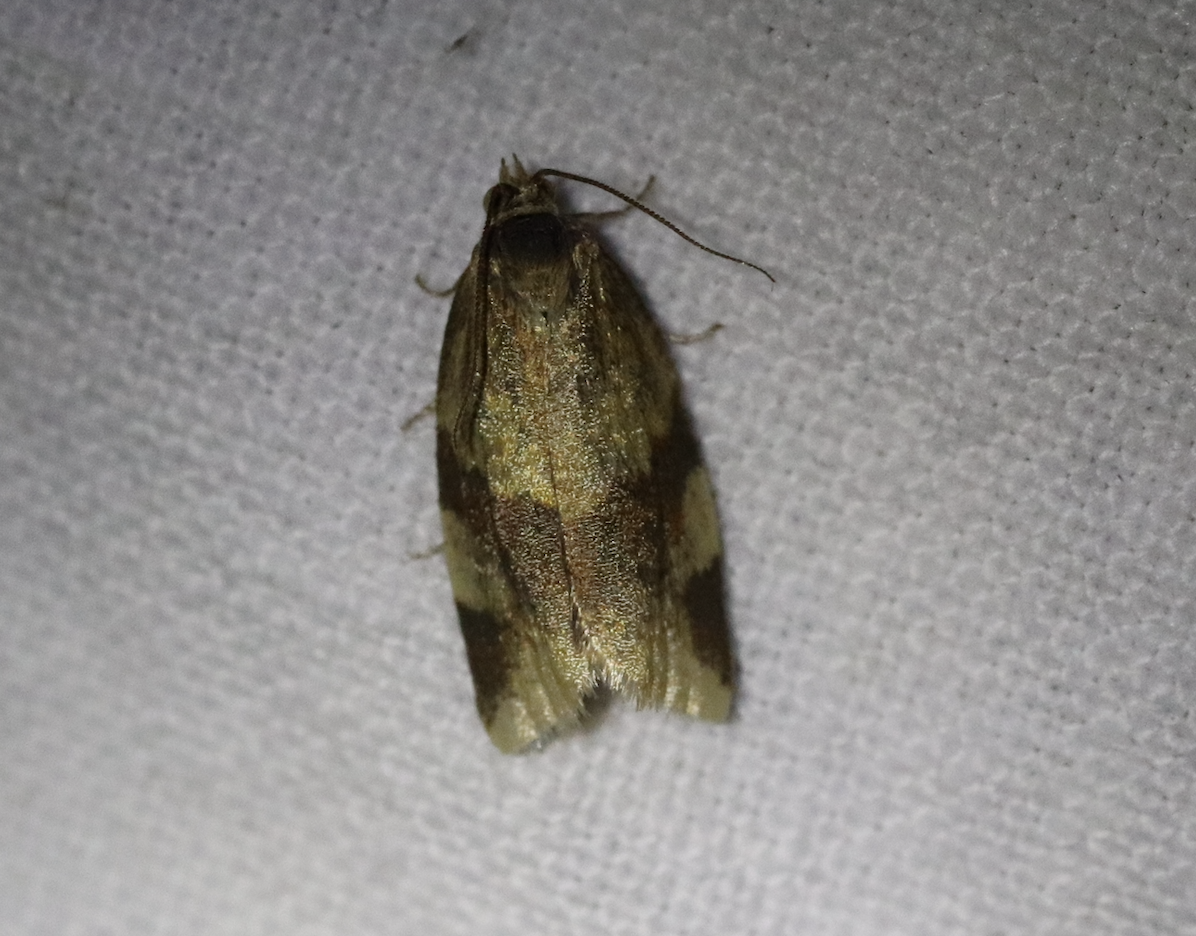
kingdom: Animalia
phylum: Arthropoda
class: Insecta
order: Lepidoptera
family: Tortricidae
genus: Epagoge
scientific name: Epagoge grotiana
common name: Brown-barred twist
